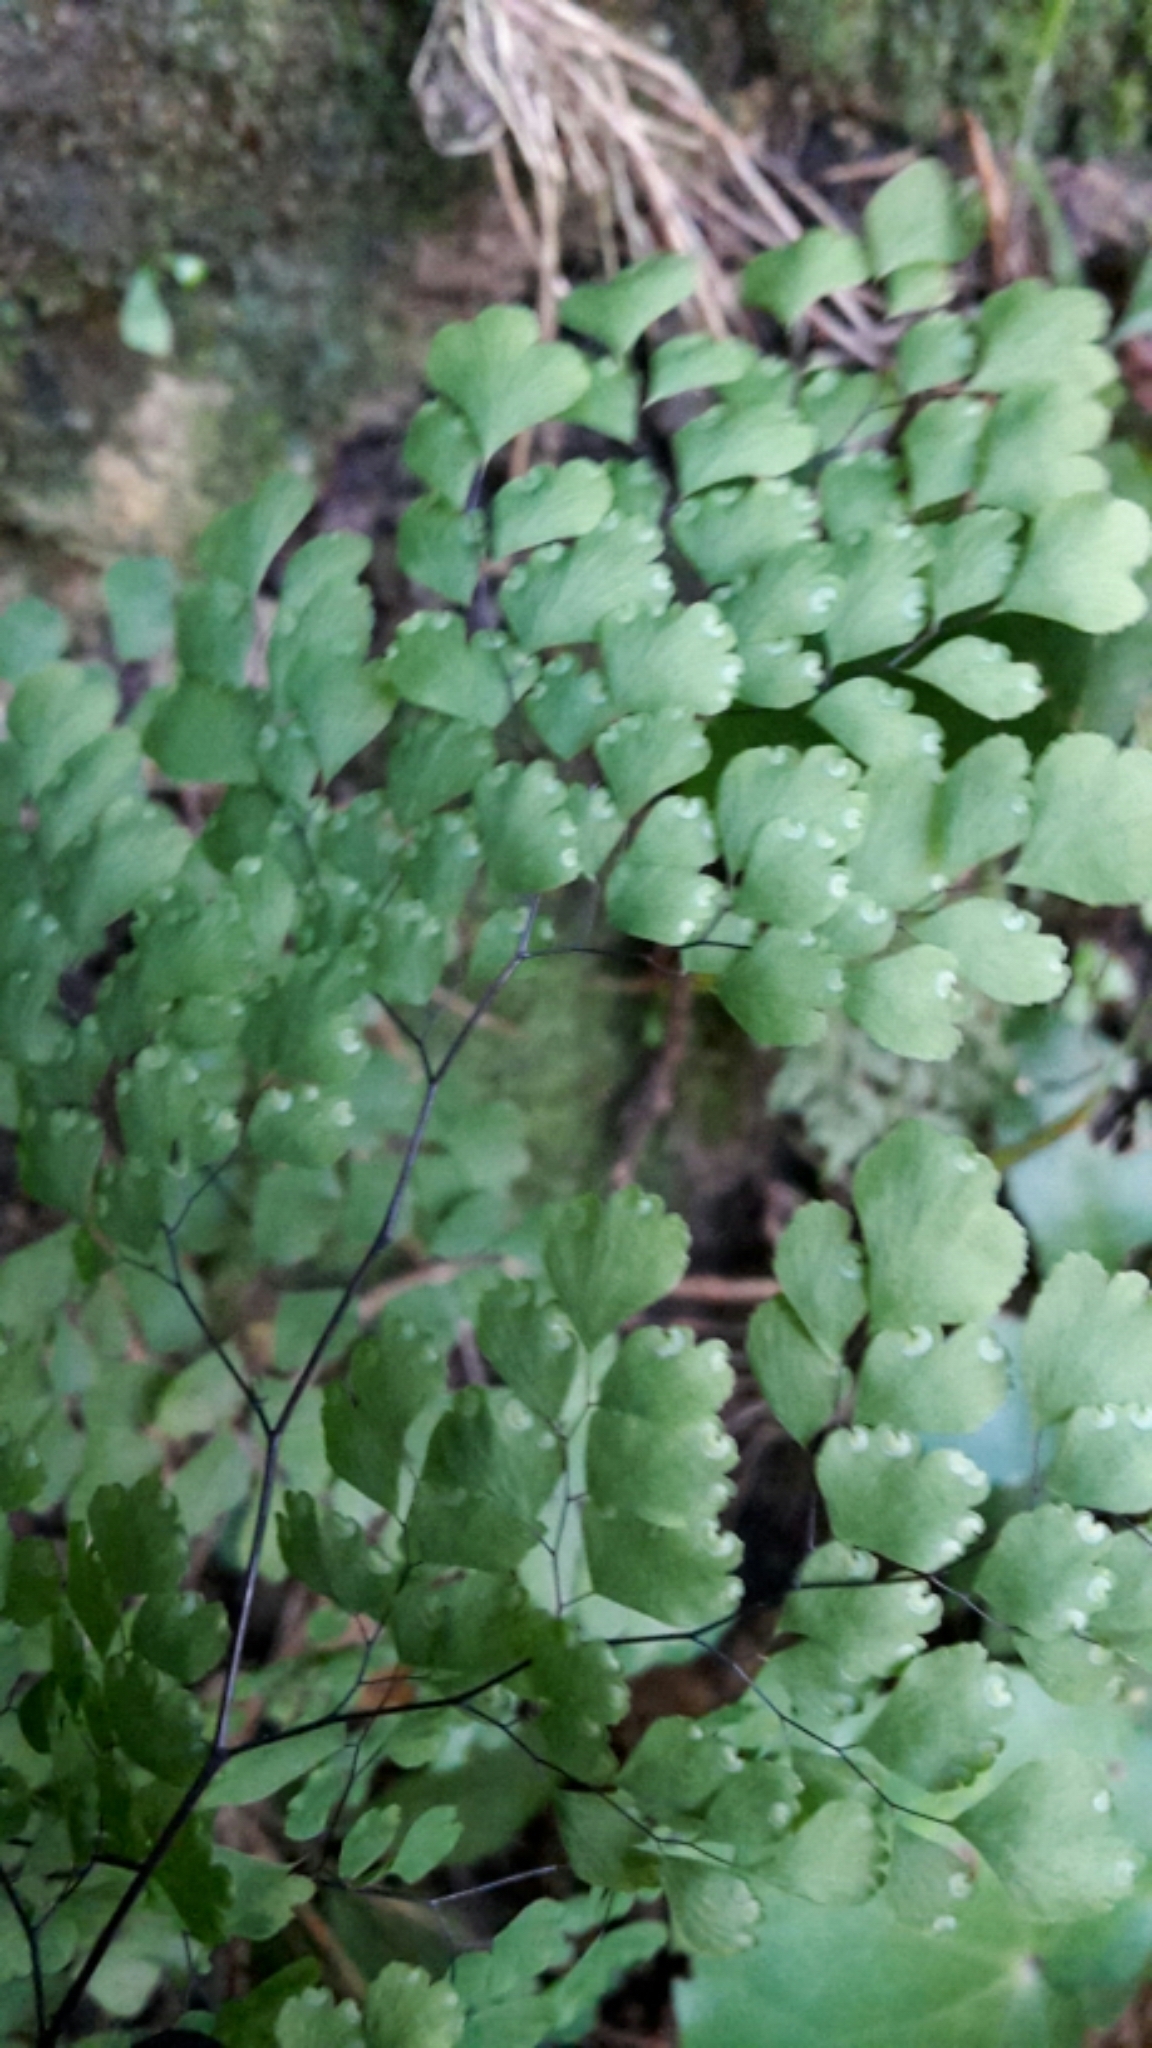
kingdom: Plantae
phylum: Tracheophyta
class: Polypodiopsida
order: Polypodiales
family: Pteridaceae
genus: Adiantum
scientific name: Adiantum raddianum
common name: Delta maidenhair fern
